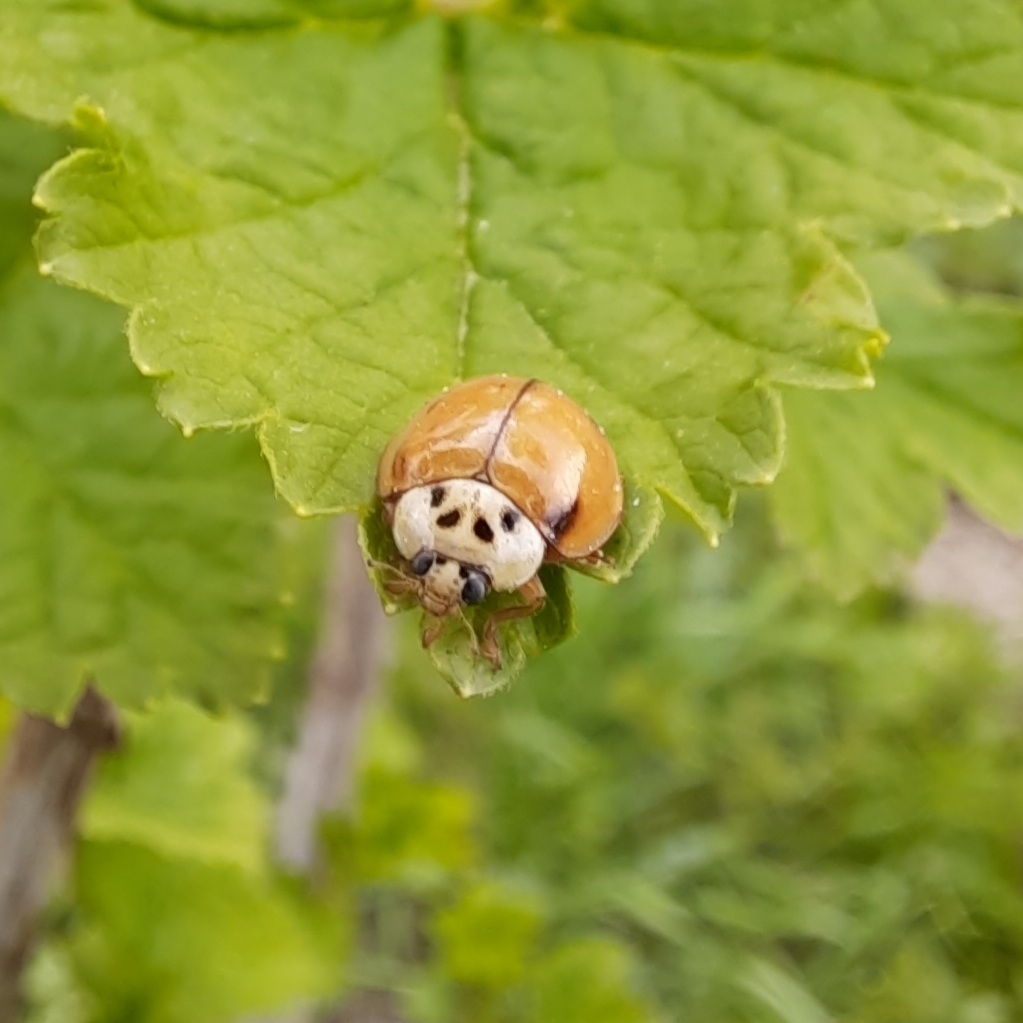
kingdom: Animalia
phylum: Arthropoda
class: Insecta
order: Coleoptera
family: Coccinellidae
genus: Harmonia
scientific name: Harmonia axyridis
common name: Harlequin ladybird
